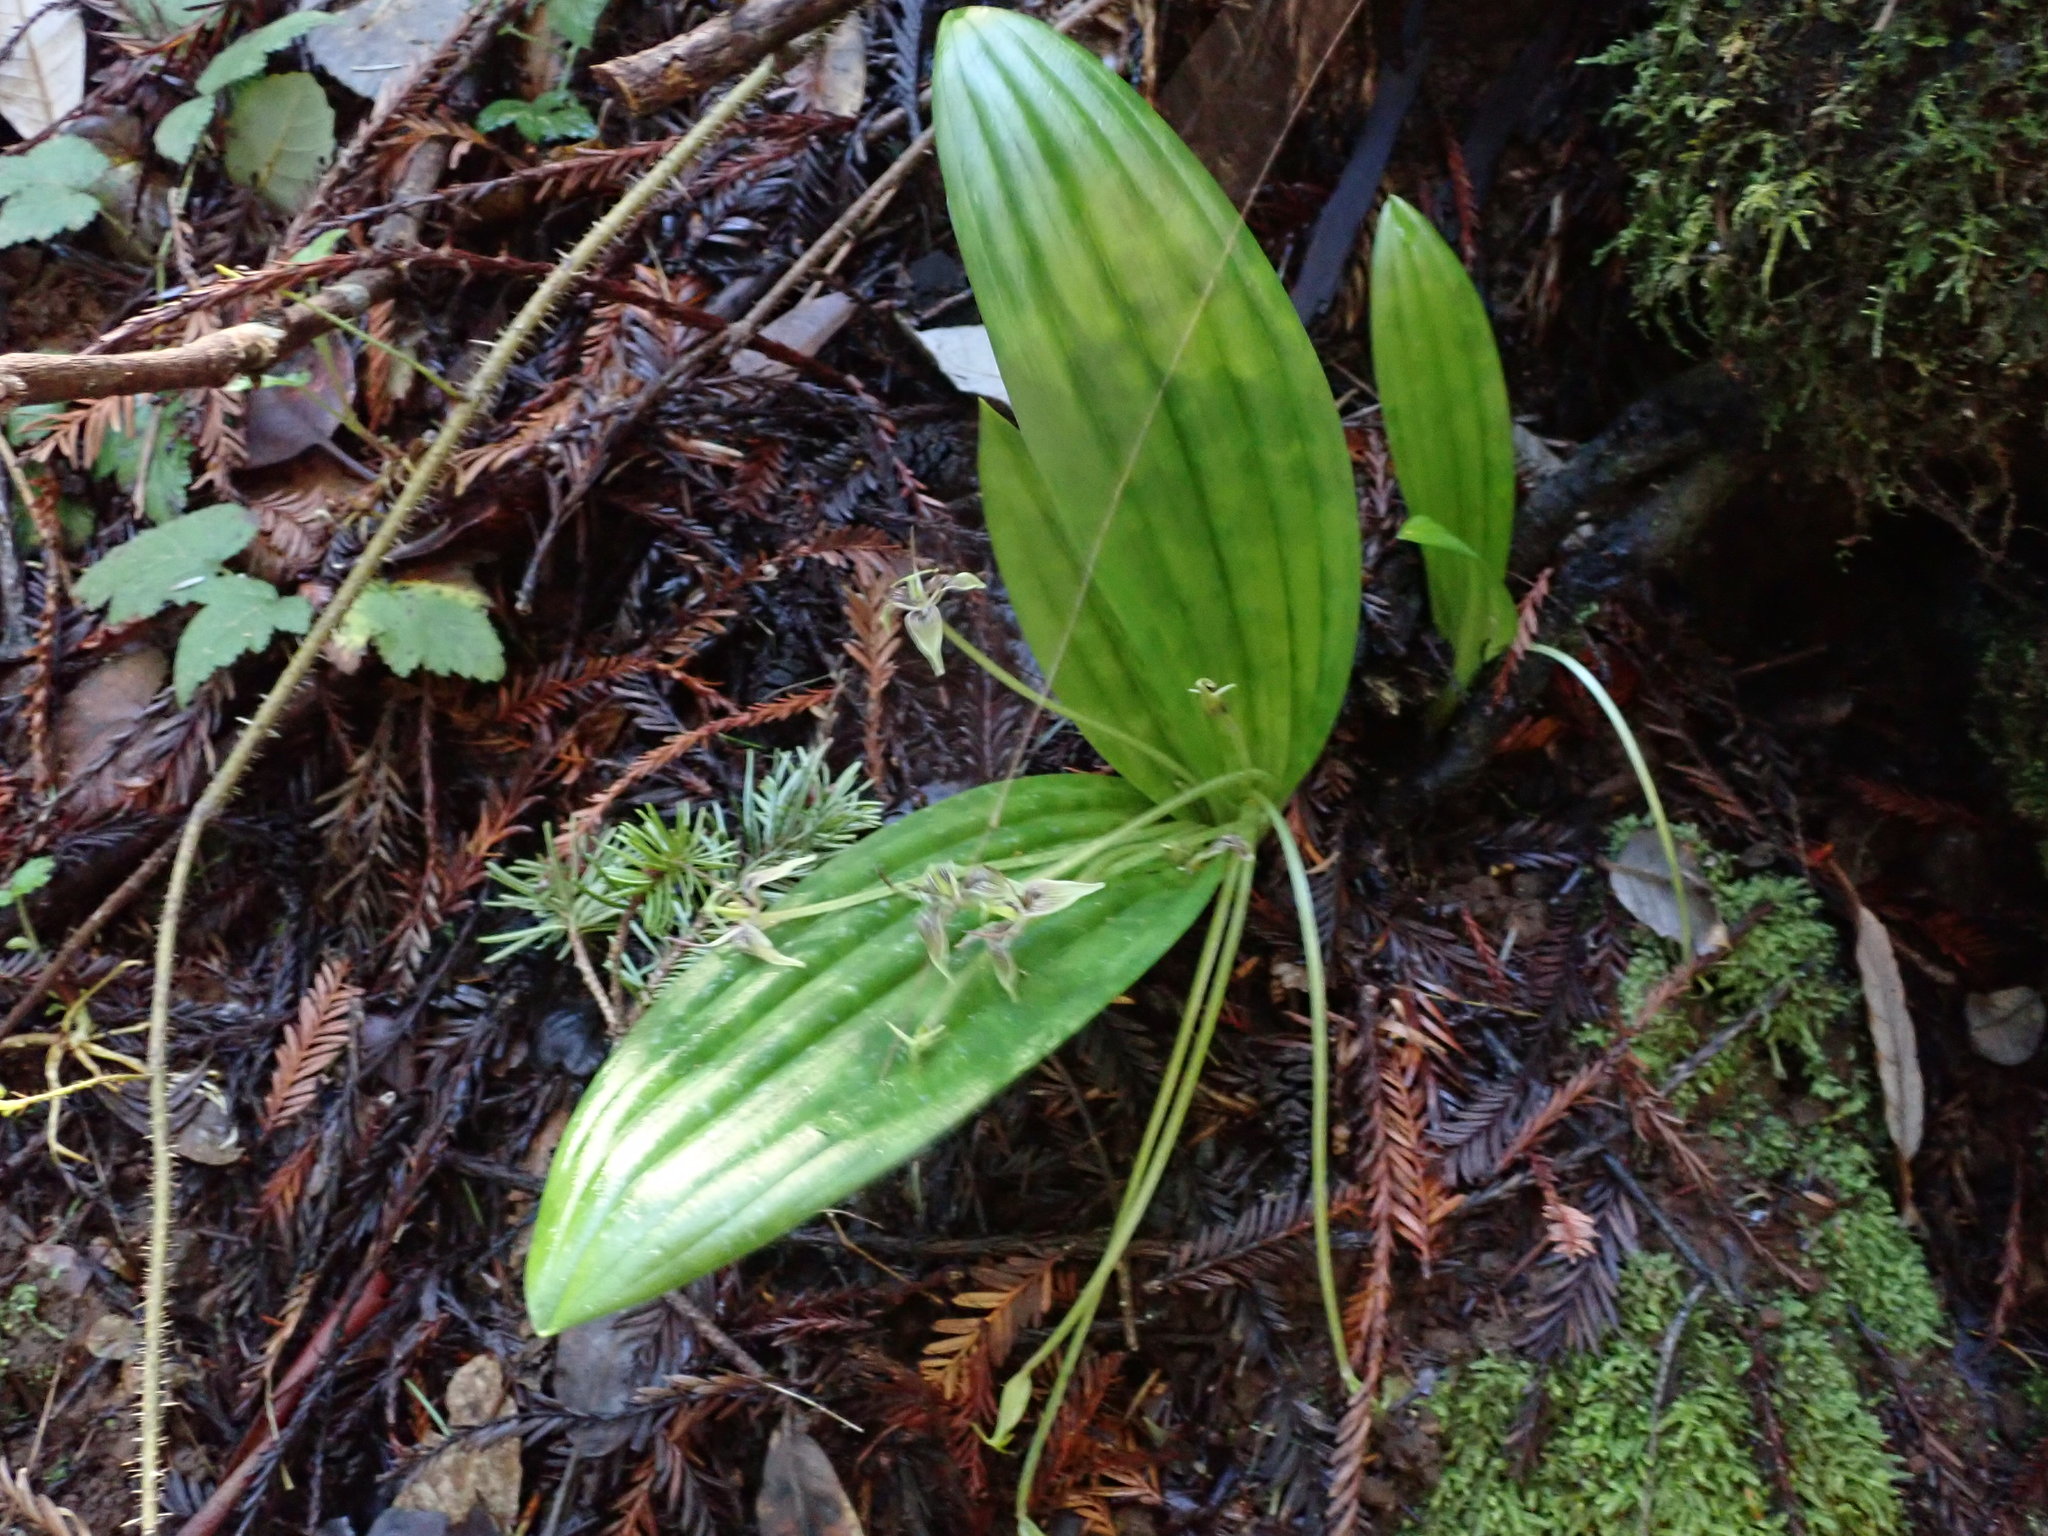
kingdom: Plantae
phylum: Tracheophyta
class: Liliopsida
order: Liliales
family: Liliaceae
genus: Scoliopus
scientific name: Scoliopus bigelovii
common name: Foetid adder's-tongue
